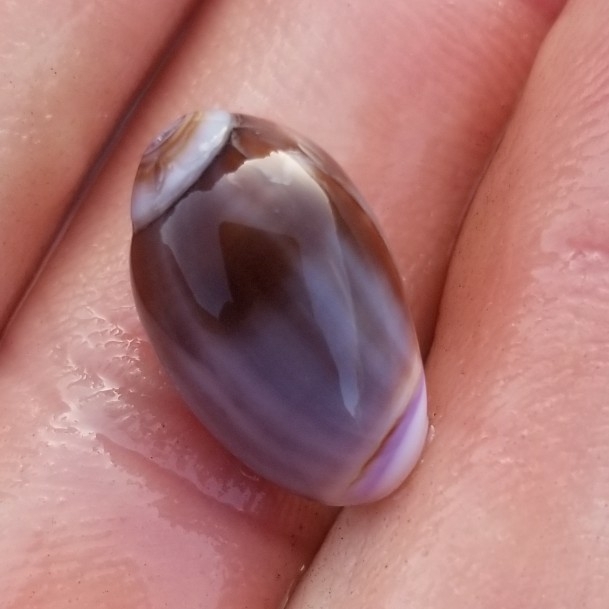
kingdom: Animalia
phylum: Mollusca
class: Gastropoda
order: Neogastropoda
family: Olividae
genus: Callianax
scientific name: Callianax biplicata
